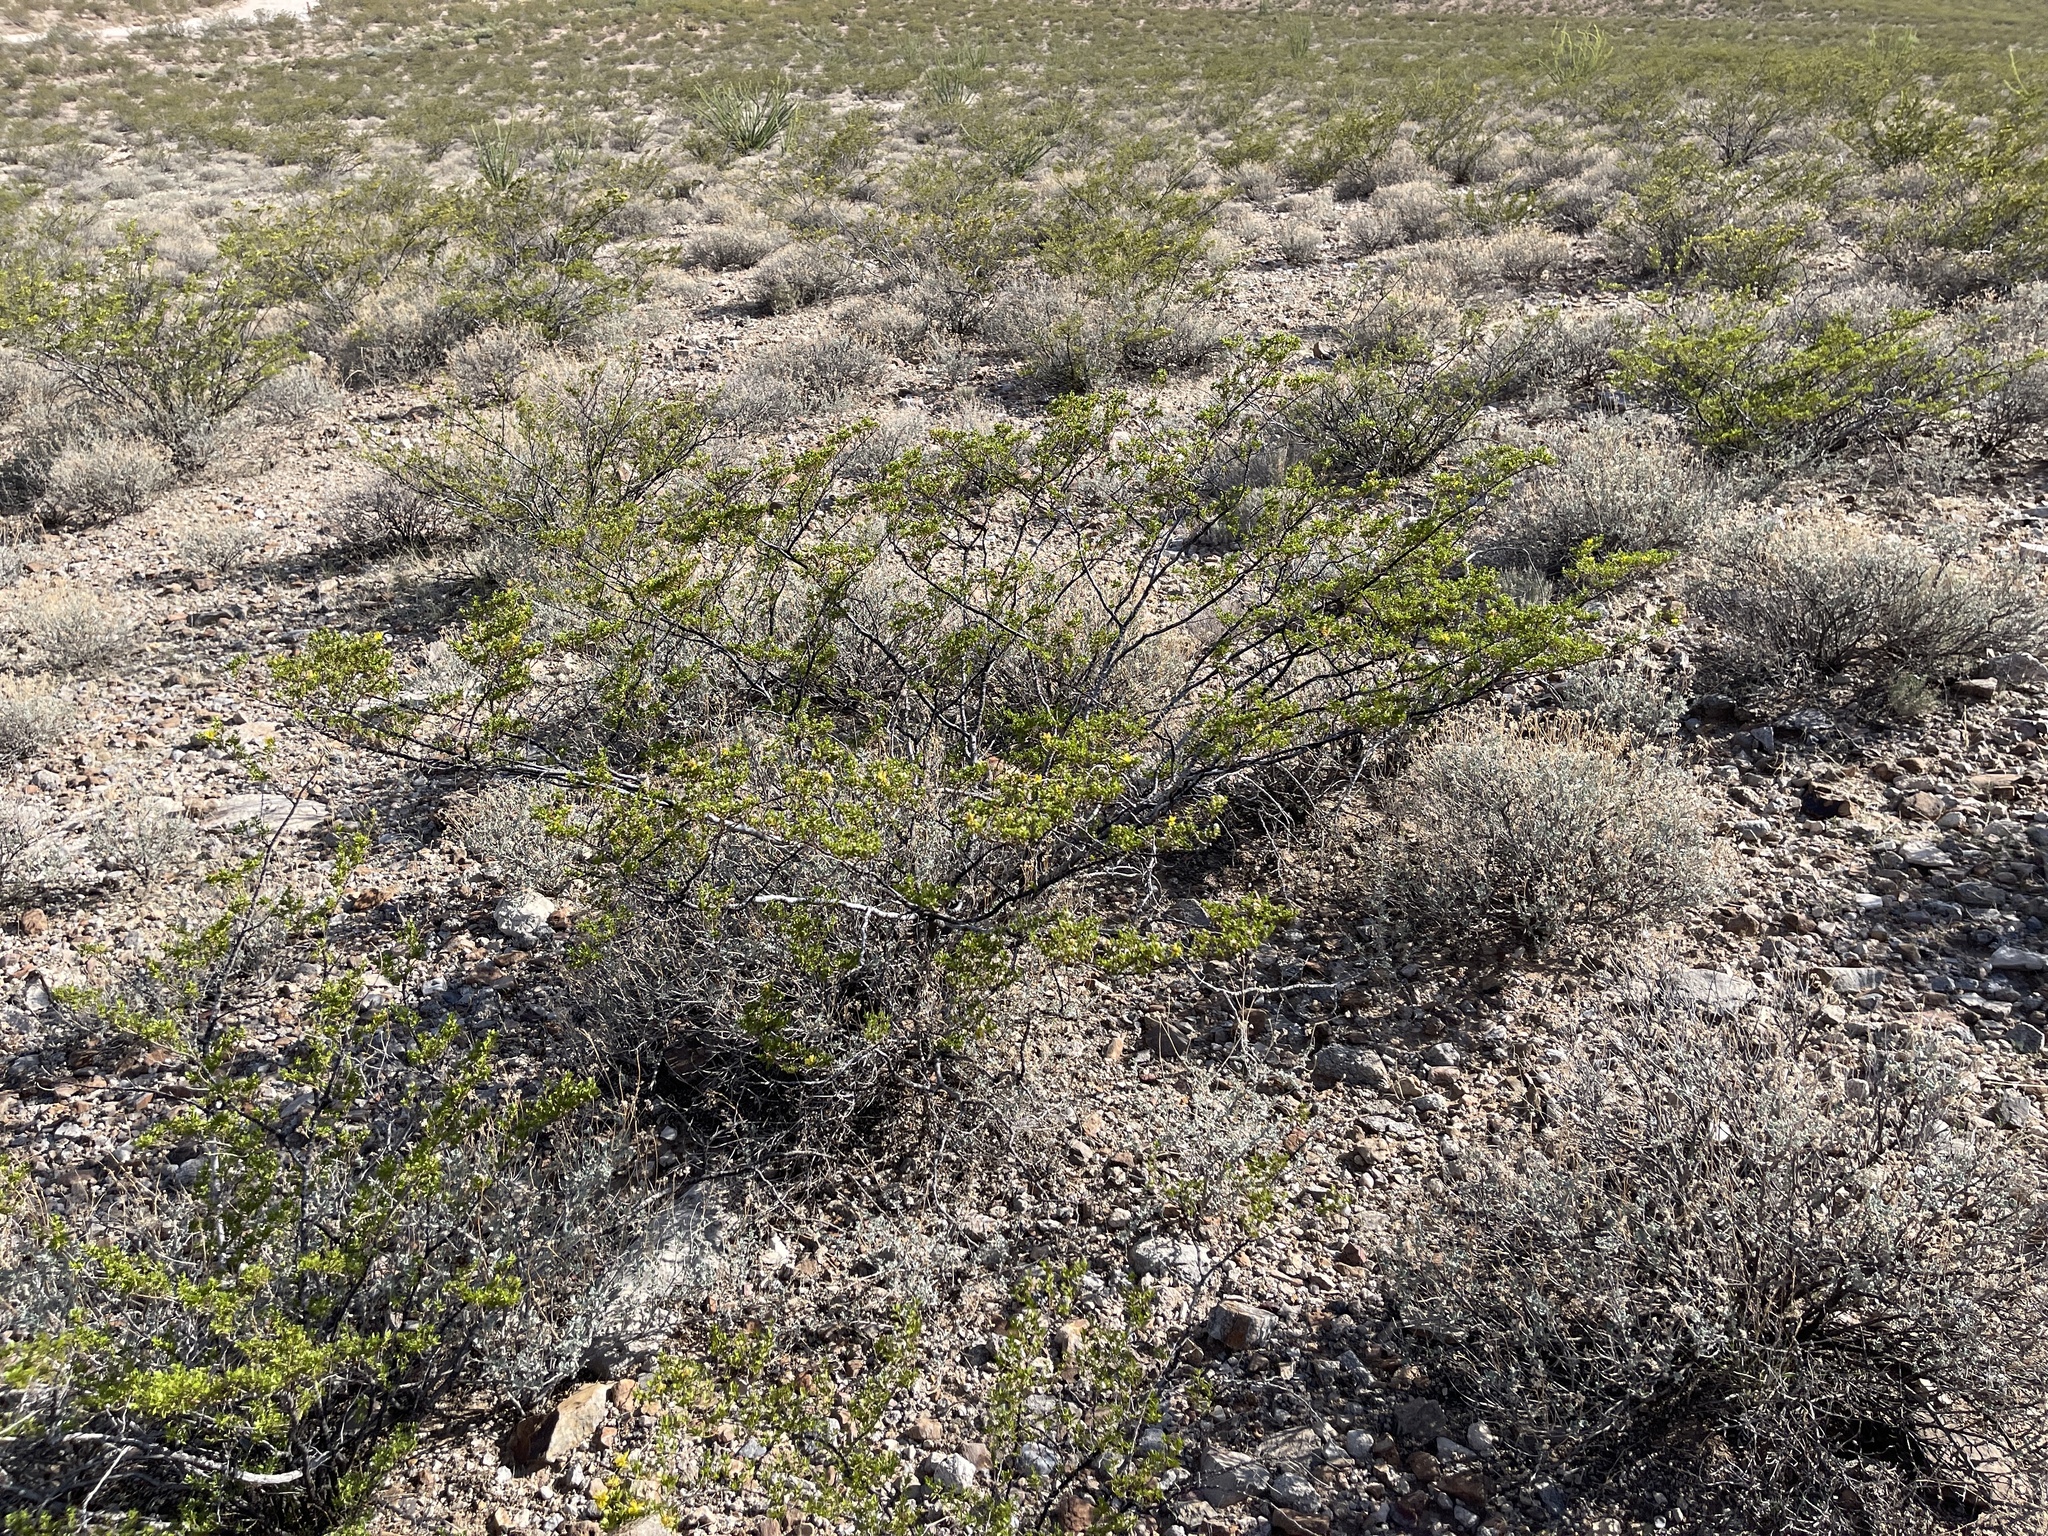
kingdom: Plantae
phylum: Tracheophyta
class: Magnoliopsida
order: Zygophyllales
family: Zygophyllaceae
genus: Larrea
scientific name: Larrea tridentata
